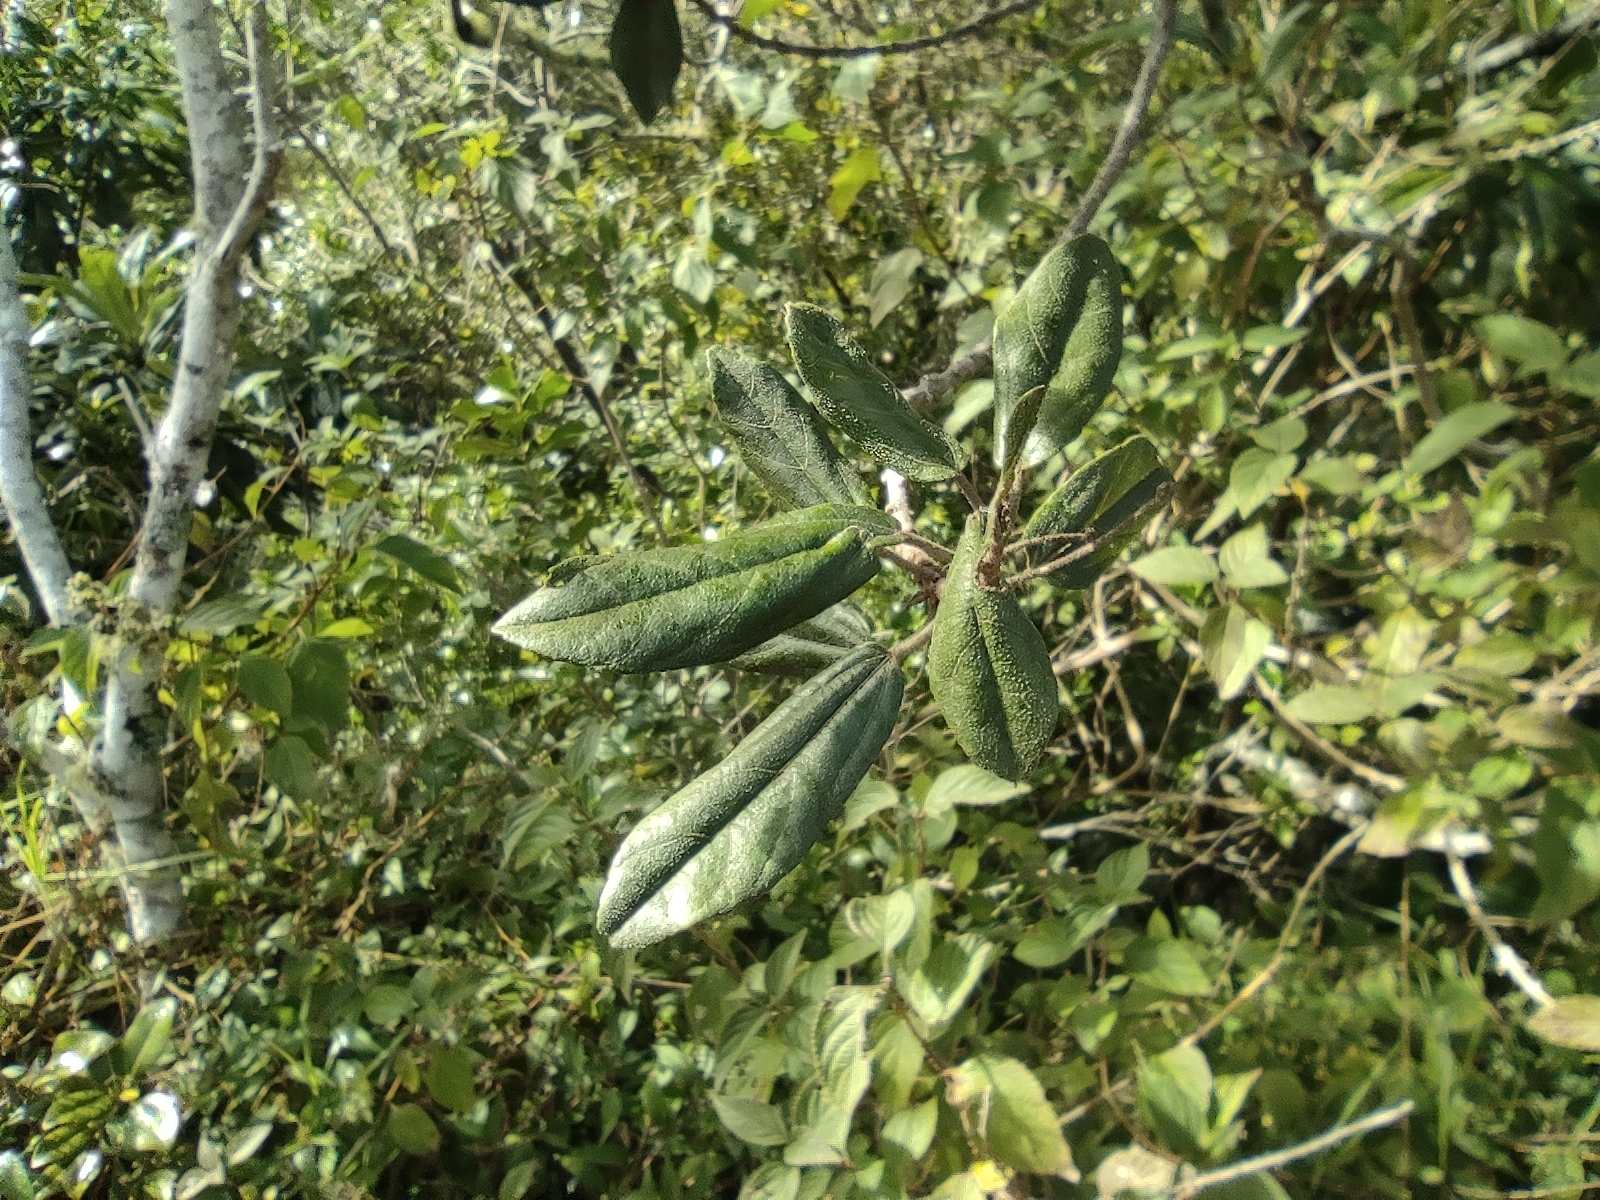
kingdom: Plantae
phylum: Tracheophyta
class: Magnoliopsida
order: Malvales
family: Malvaceae
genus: Dombeya
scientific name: Dombeya punctata
